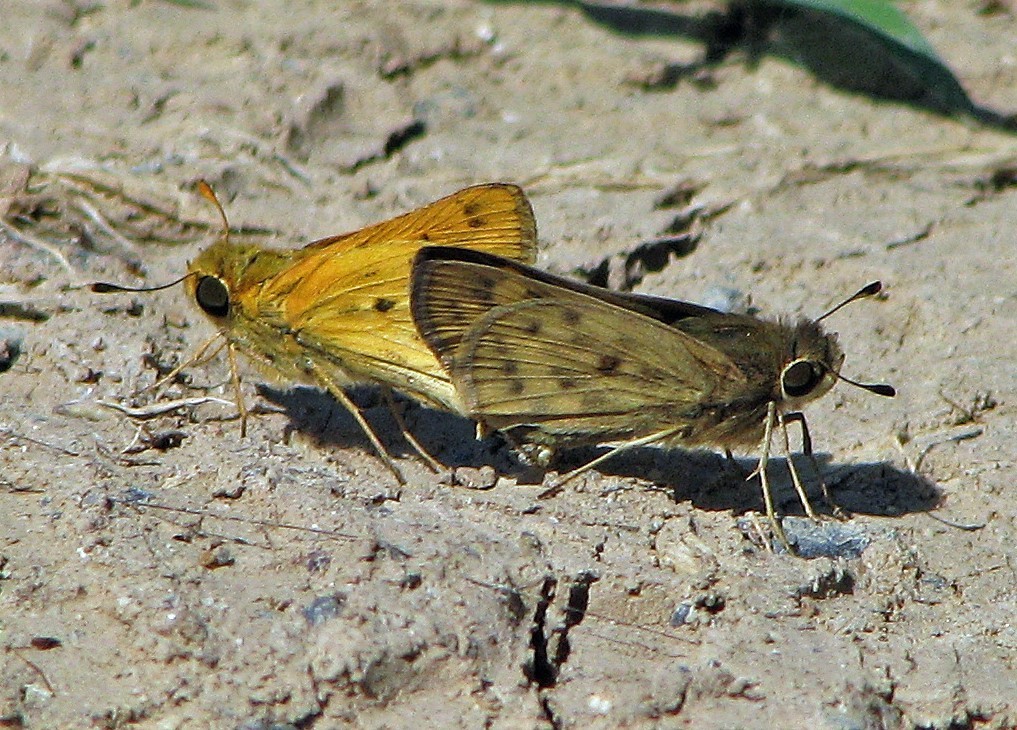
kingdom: Animalia
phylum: Arthropoda
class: Insecta
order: Lepidoptera
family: Hesperiidae
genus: Hylephila
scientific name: Hylephila phyleus
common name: Fiery skipper
